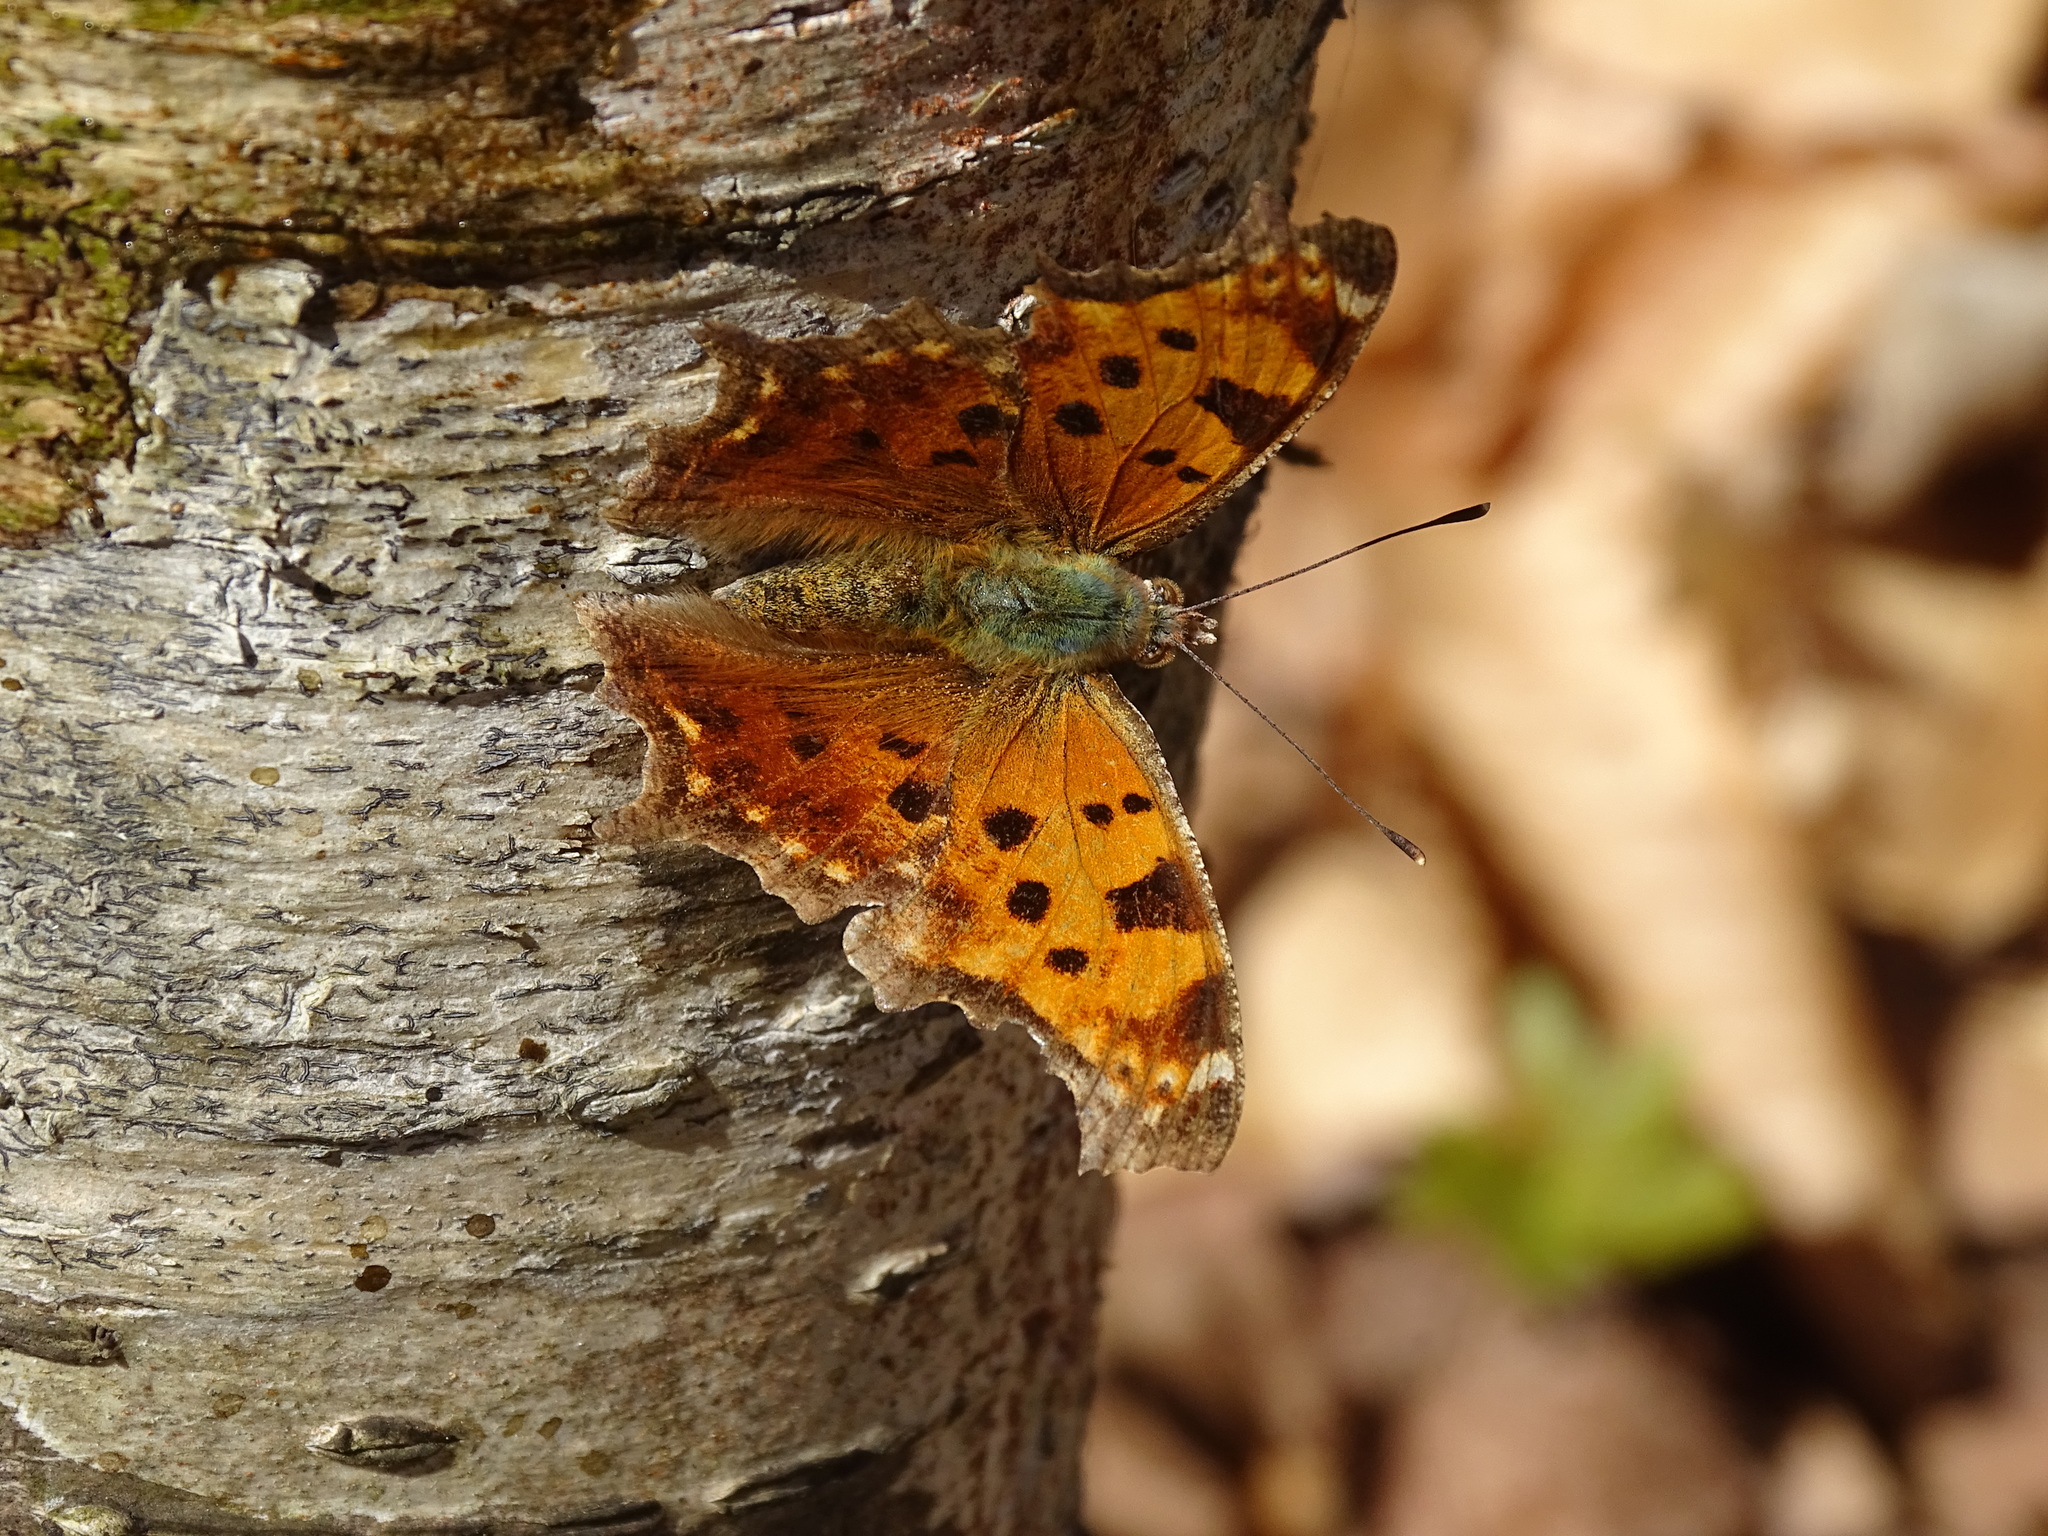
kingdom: Animalia
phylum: Arthropoda
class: Insecta
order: Lepidoptera
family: Nymphalidae
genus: Polygonia
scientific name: Polygonia comma
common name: Eastern comma
